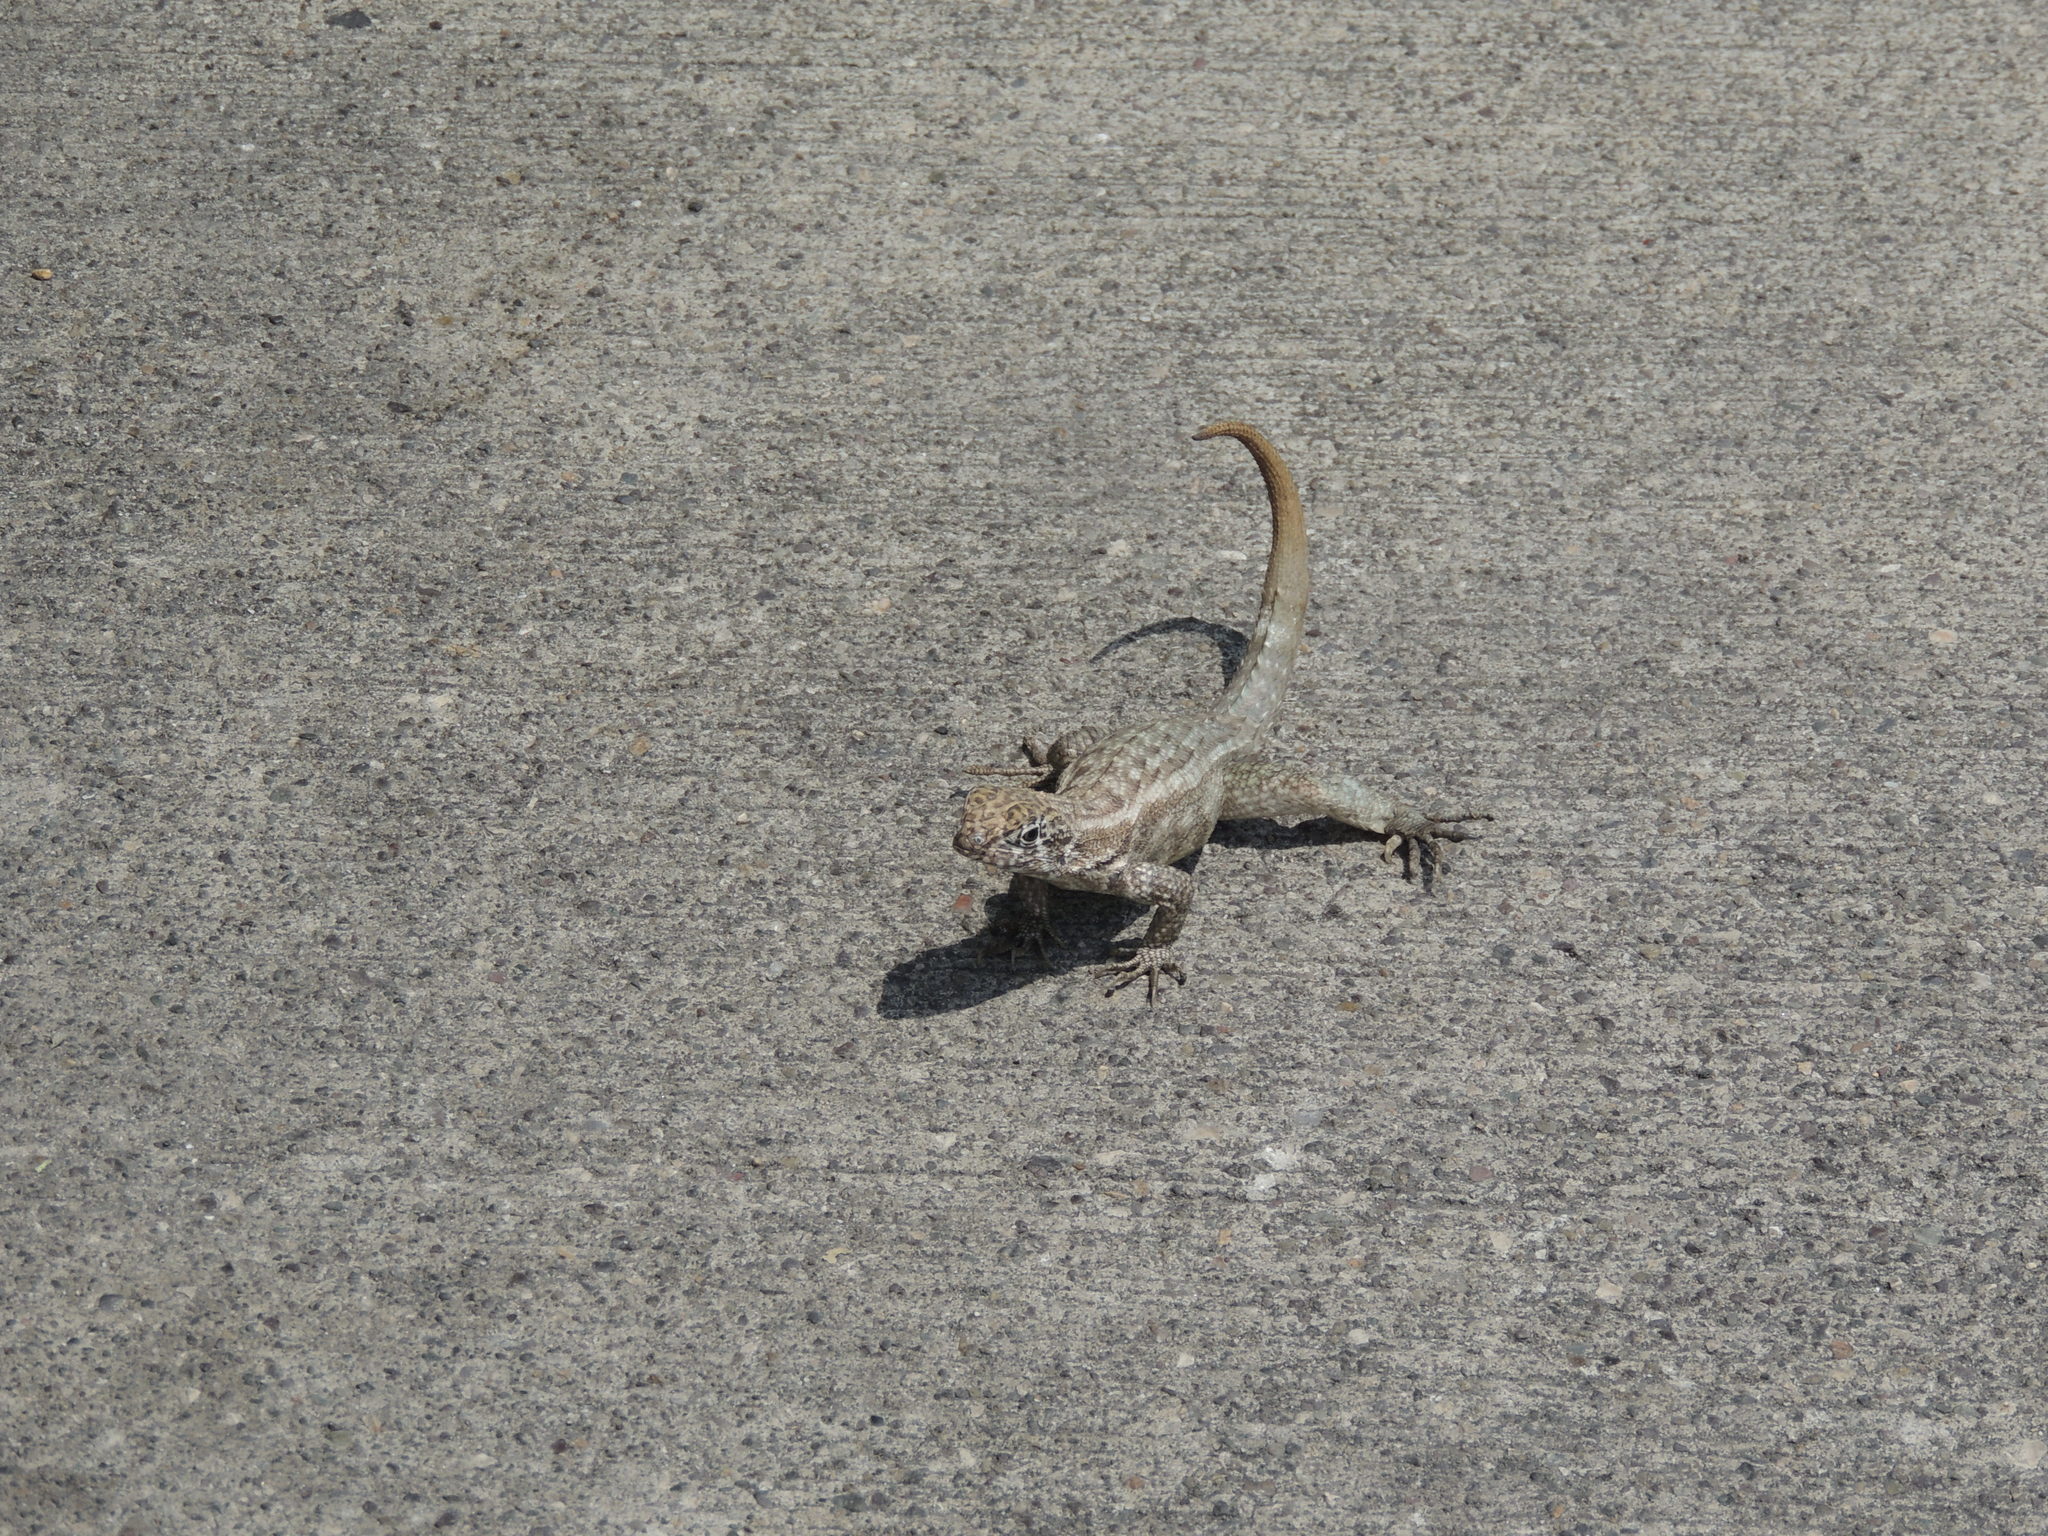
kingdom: Animalia
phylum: Chordata
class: Squamata
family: Leiocephalidae
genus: Leiocephalus
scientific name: Leiocephalus varius
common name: Cayman curlytail
